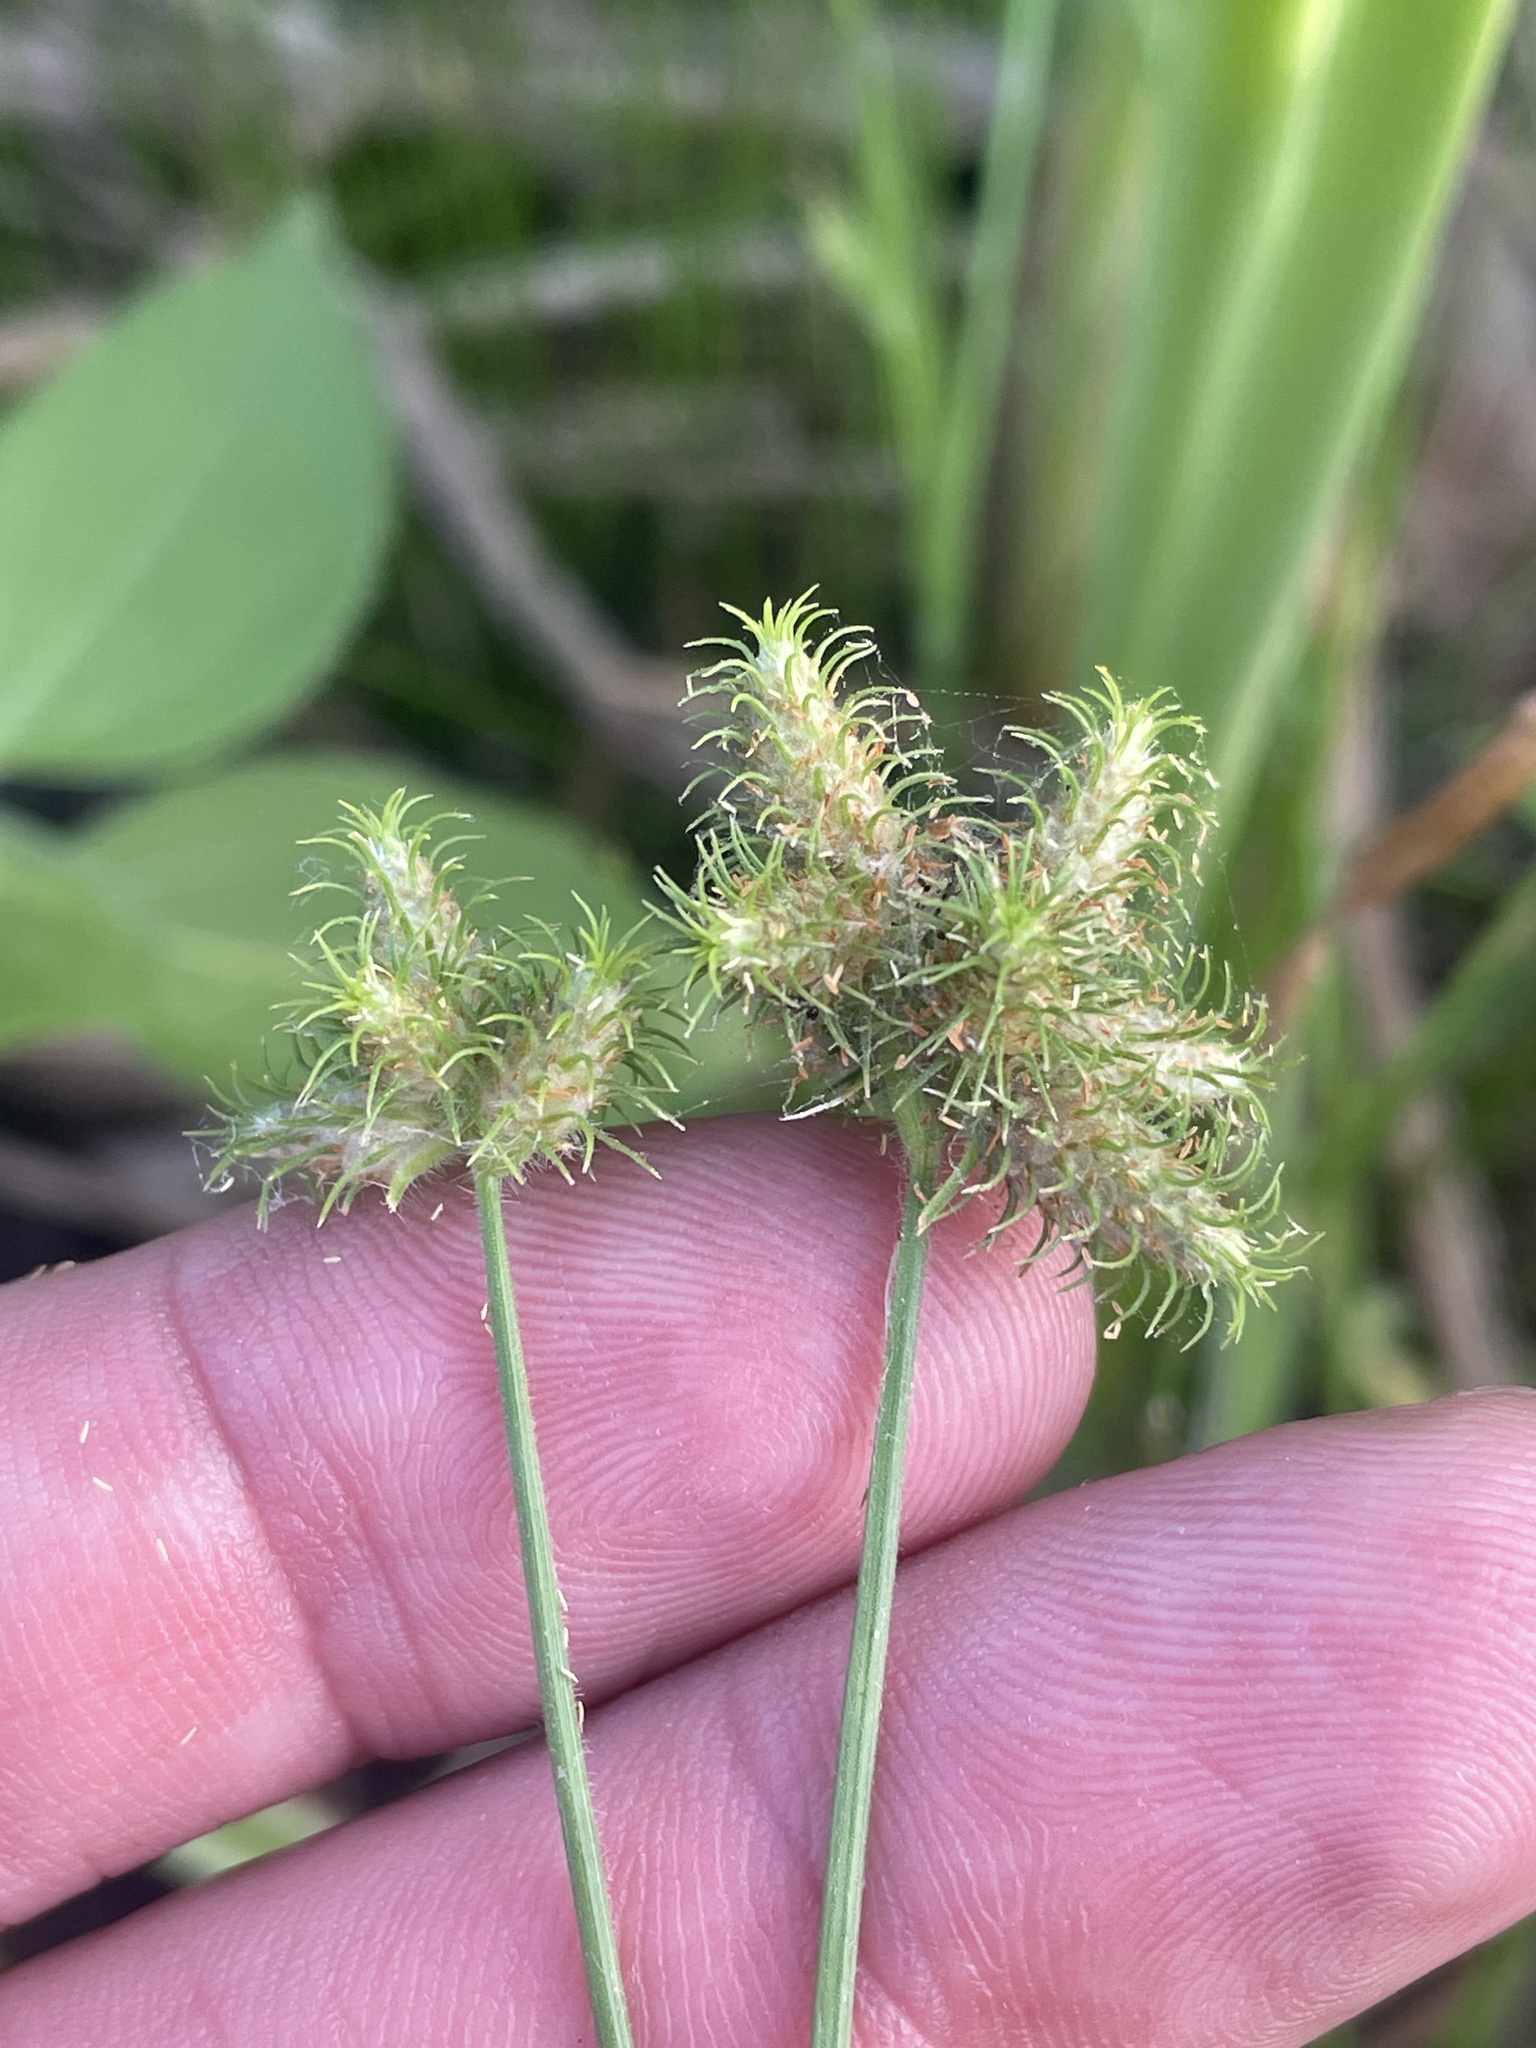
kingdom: Plantae
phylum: Tracheophyta
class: Liliopsida
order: Poales
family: Cyperaceae
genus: Fuirena
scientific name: Fuirena simplex
